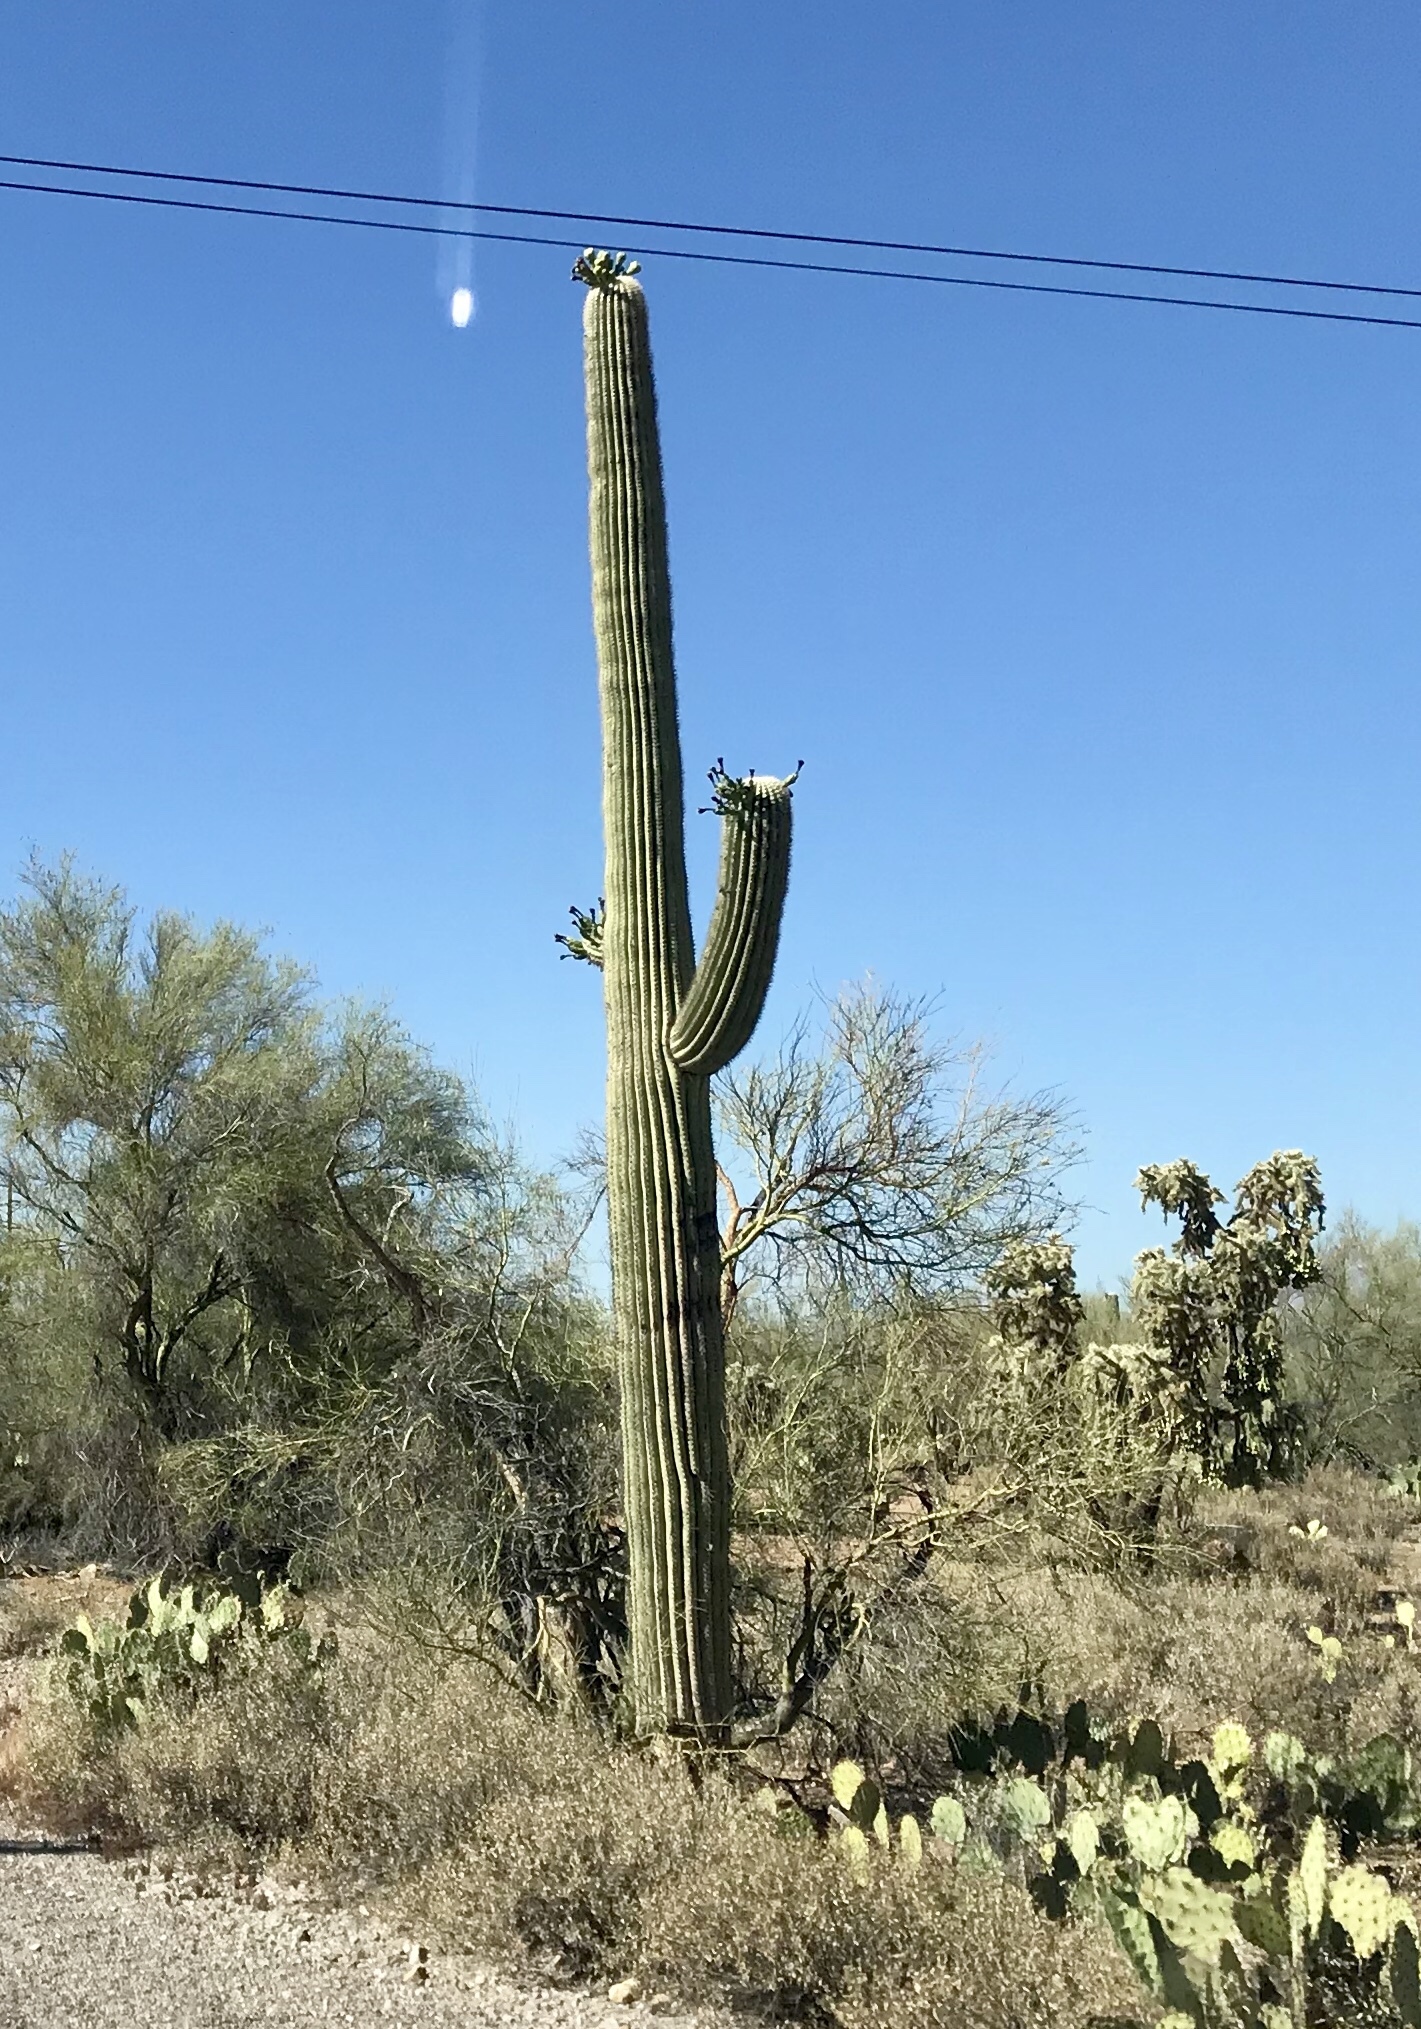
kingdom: Plantae
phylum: Tracheophyta
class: Magnoliopsida
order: Caryophyllales
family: Cactaceae
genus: Carnegiea
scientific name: Carnegiea gigantea
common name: Saguaro
